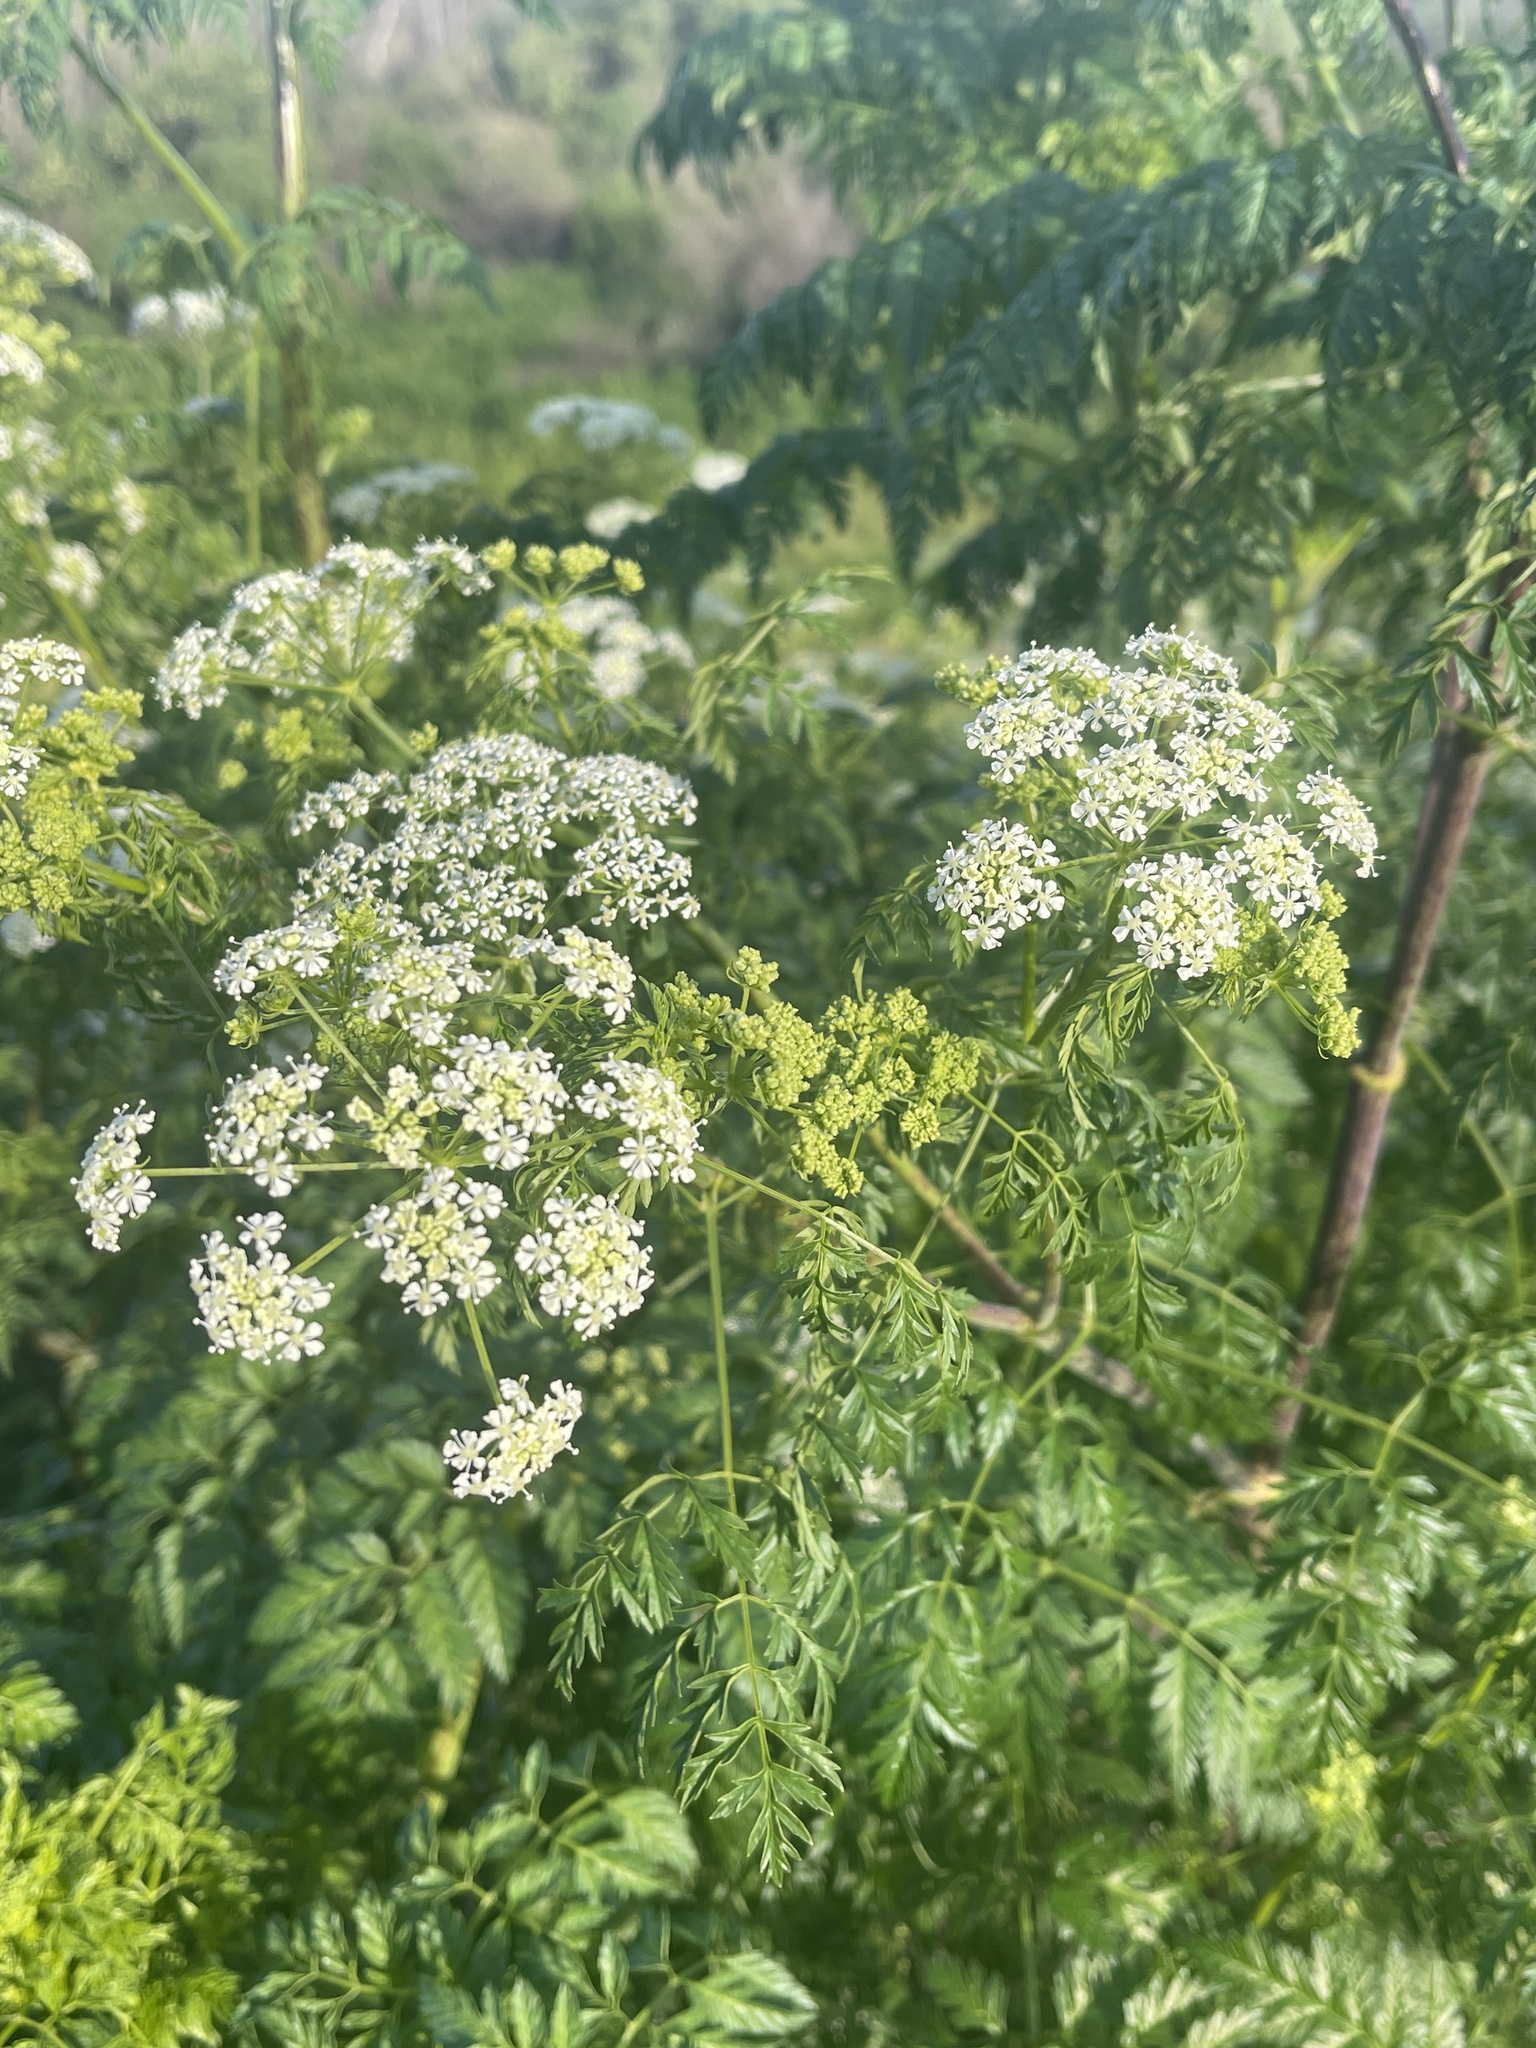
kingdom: Plantae
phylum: Tracheophyta
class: Magnoliopsida
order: Apiales
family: Apiaceae
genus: Conium
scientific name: Conium maculatum
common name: Hemlock
